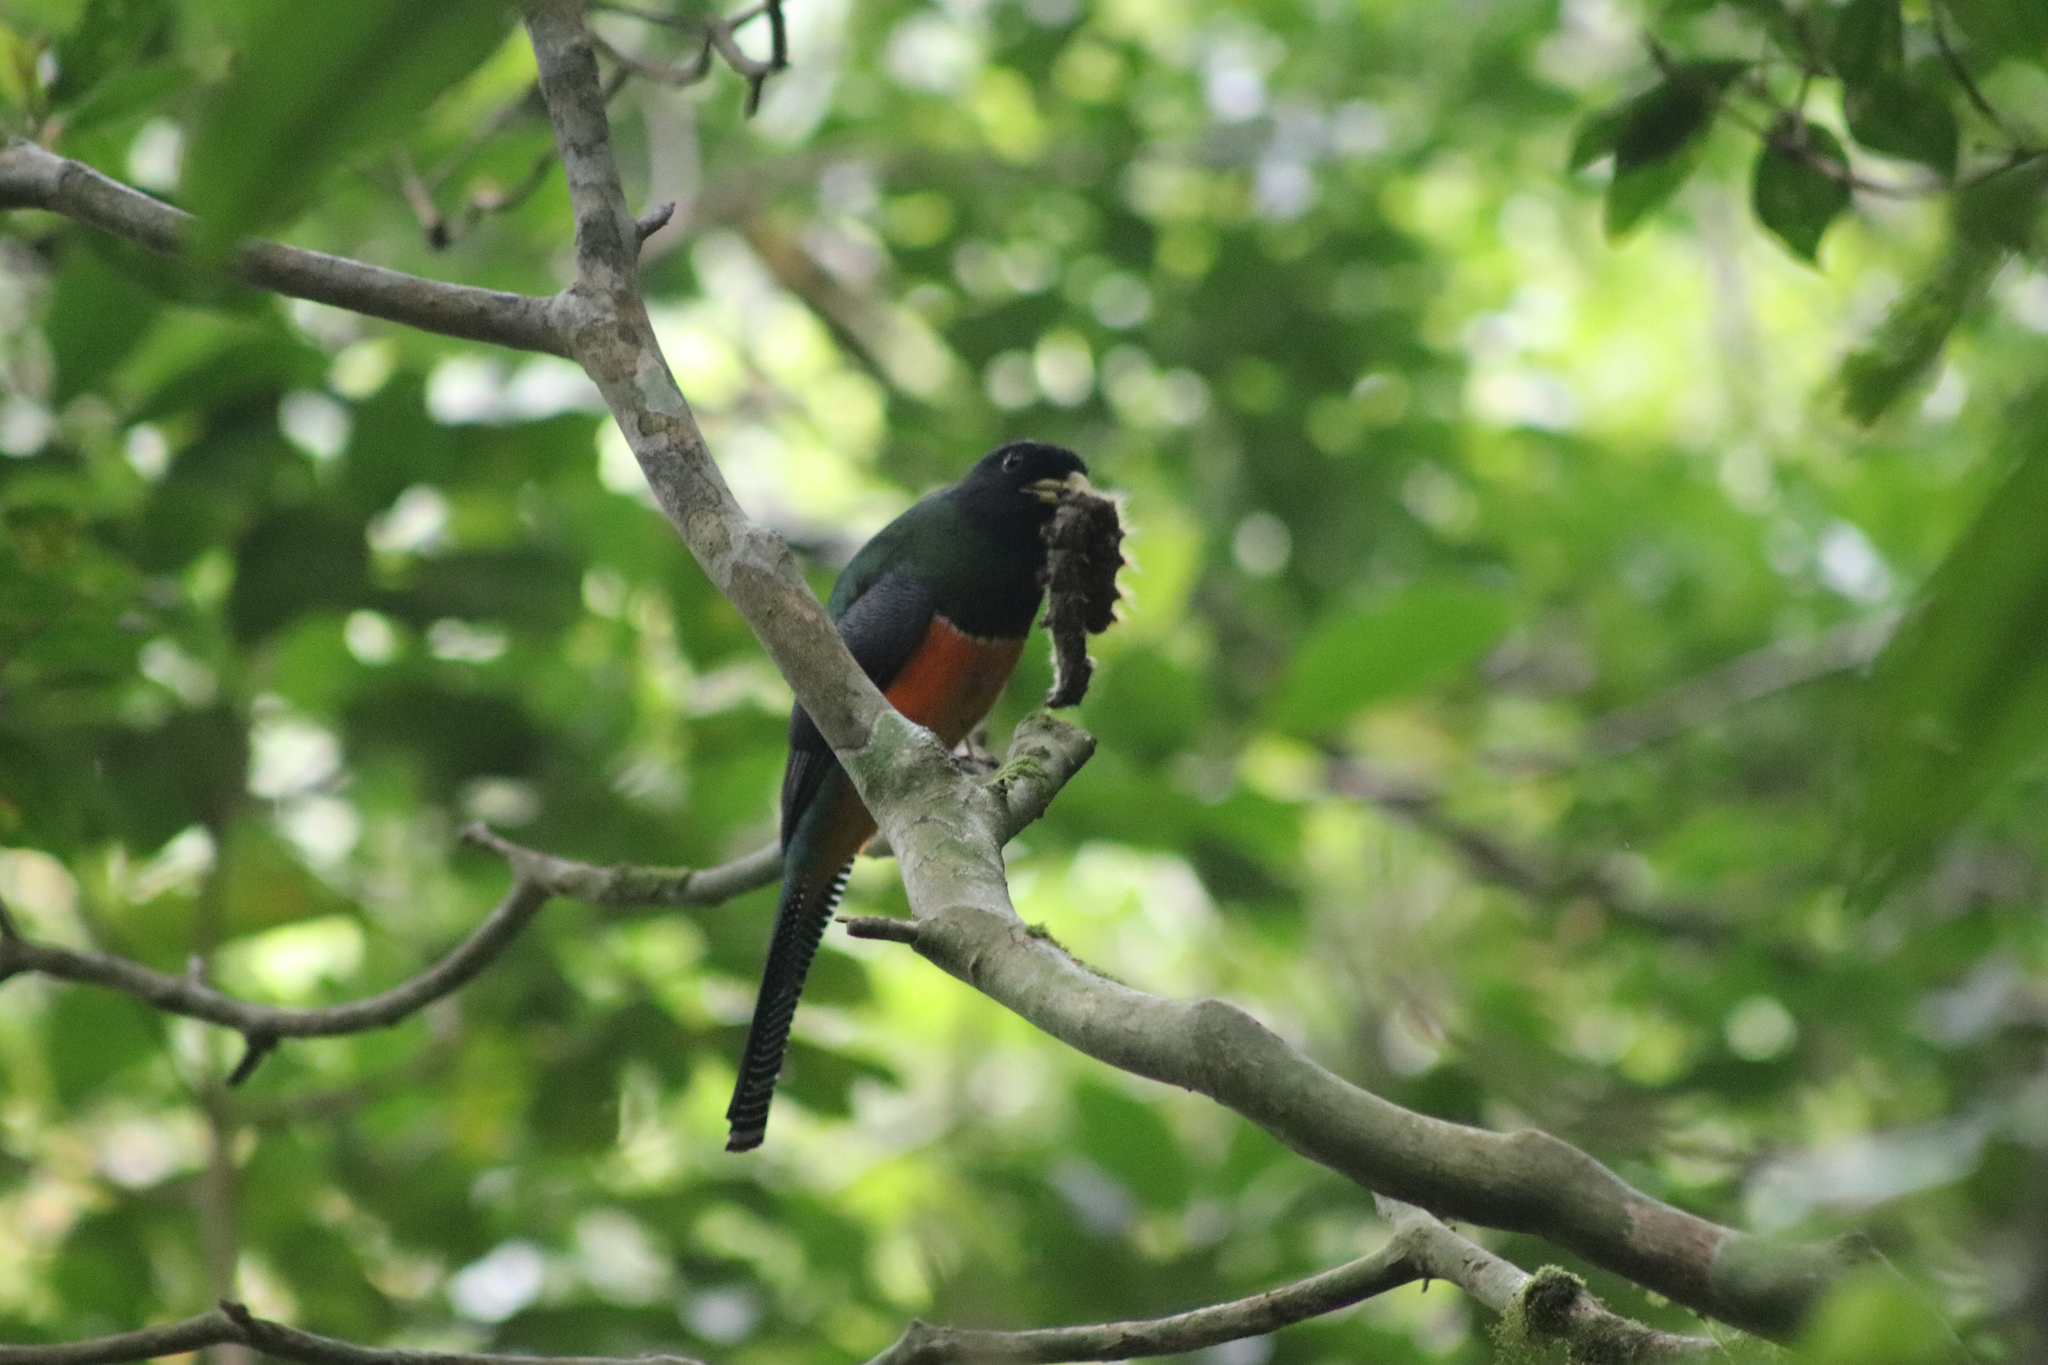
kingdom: Animalia
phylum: Chordata
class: Aves
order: Trogoniformes
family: Trogonidae
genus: Trogon
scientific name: Trogon collaris
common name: Collared trogon
